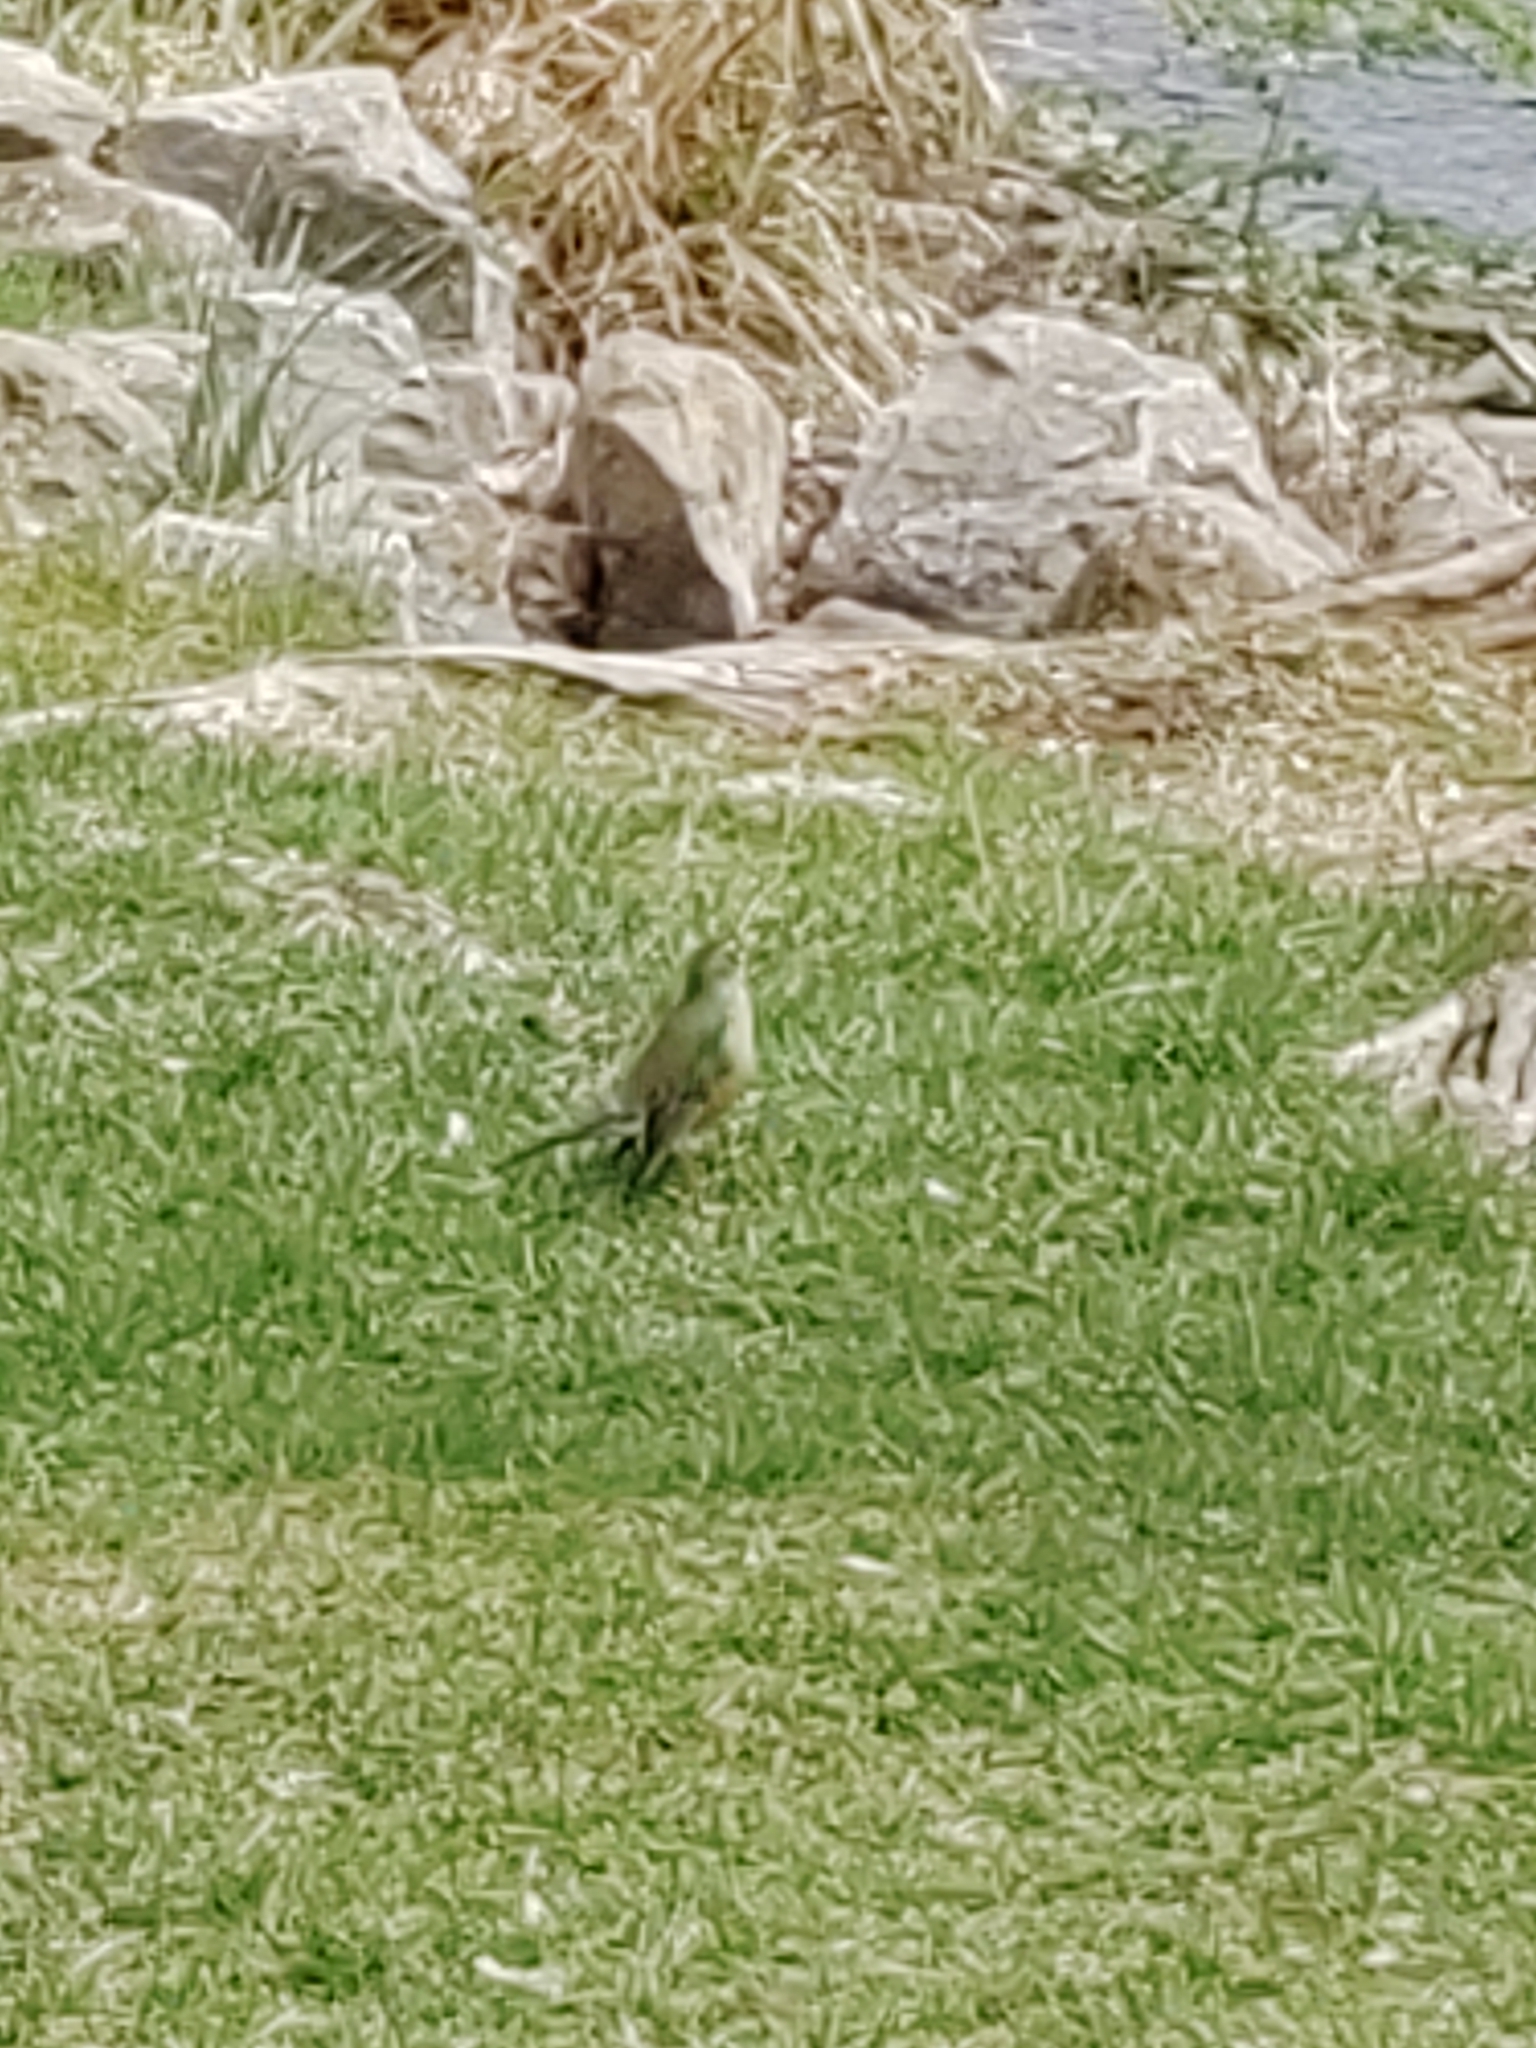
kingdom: Animalia
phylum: Chordata
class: Aves
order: Passeriformes
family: Turdidae
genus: Turdus
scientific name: Turdus migratorius
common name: American robin
